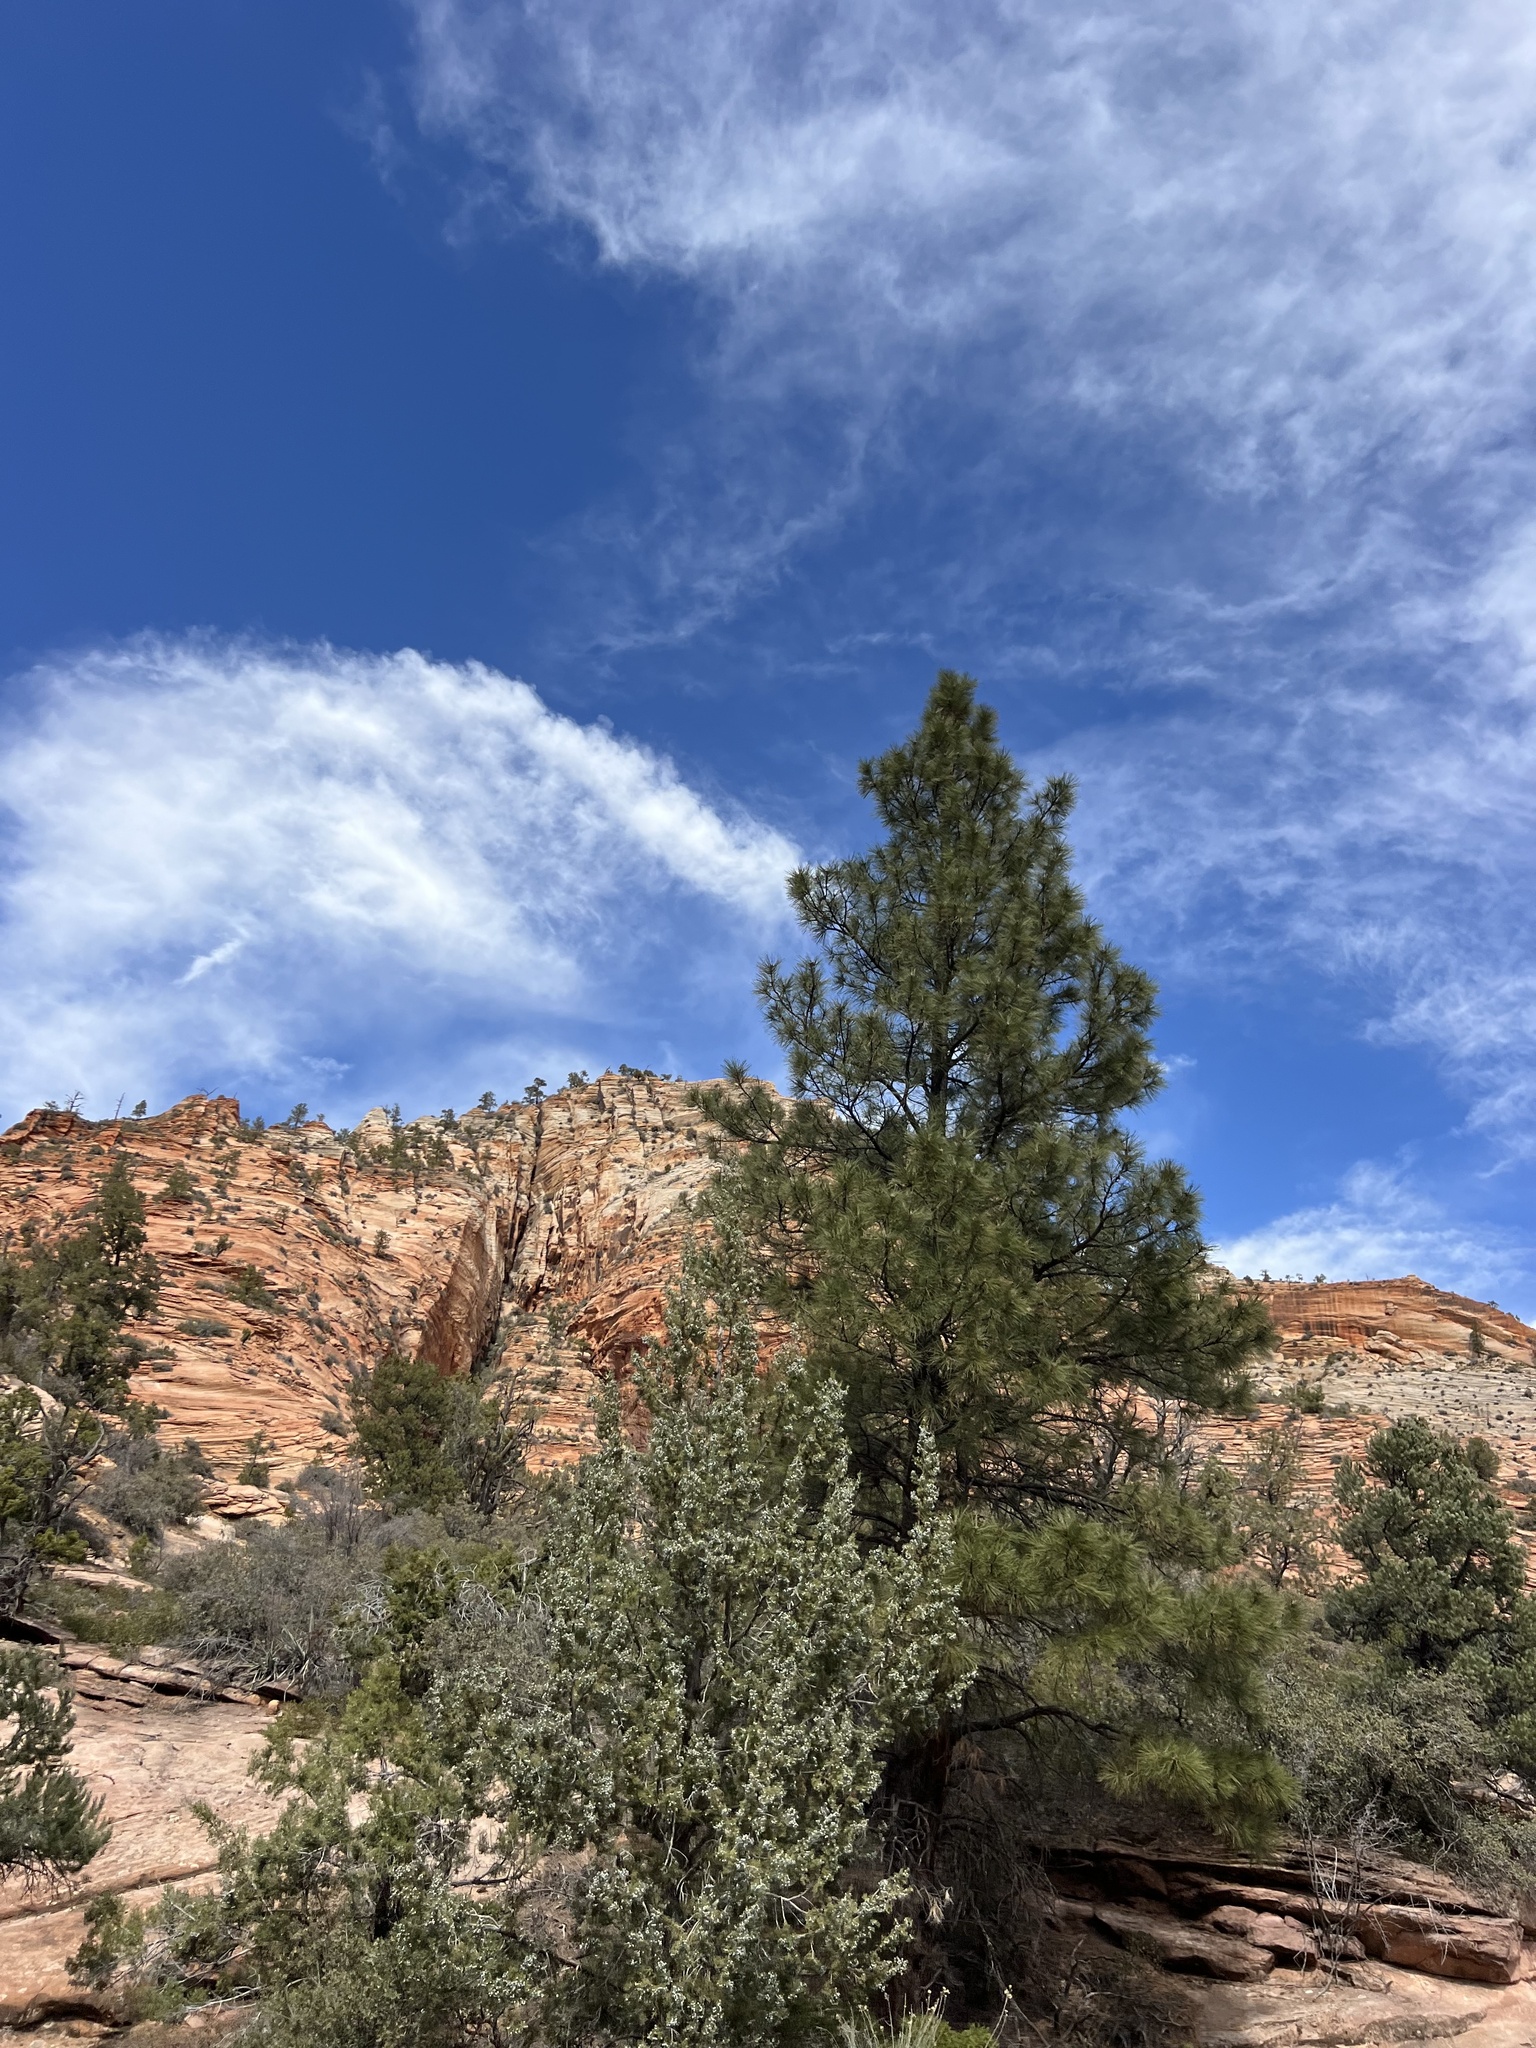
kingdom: Plantae
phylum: Tracheophyta
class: Pinopsida
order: Pinales
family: Pinaceae
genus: Pinus
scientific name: Pinus ponderosa
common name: Western yellow-pine
